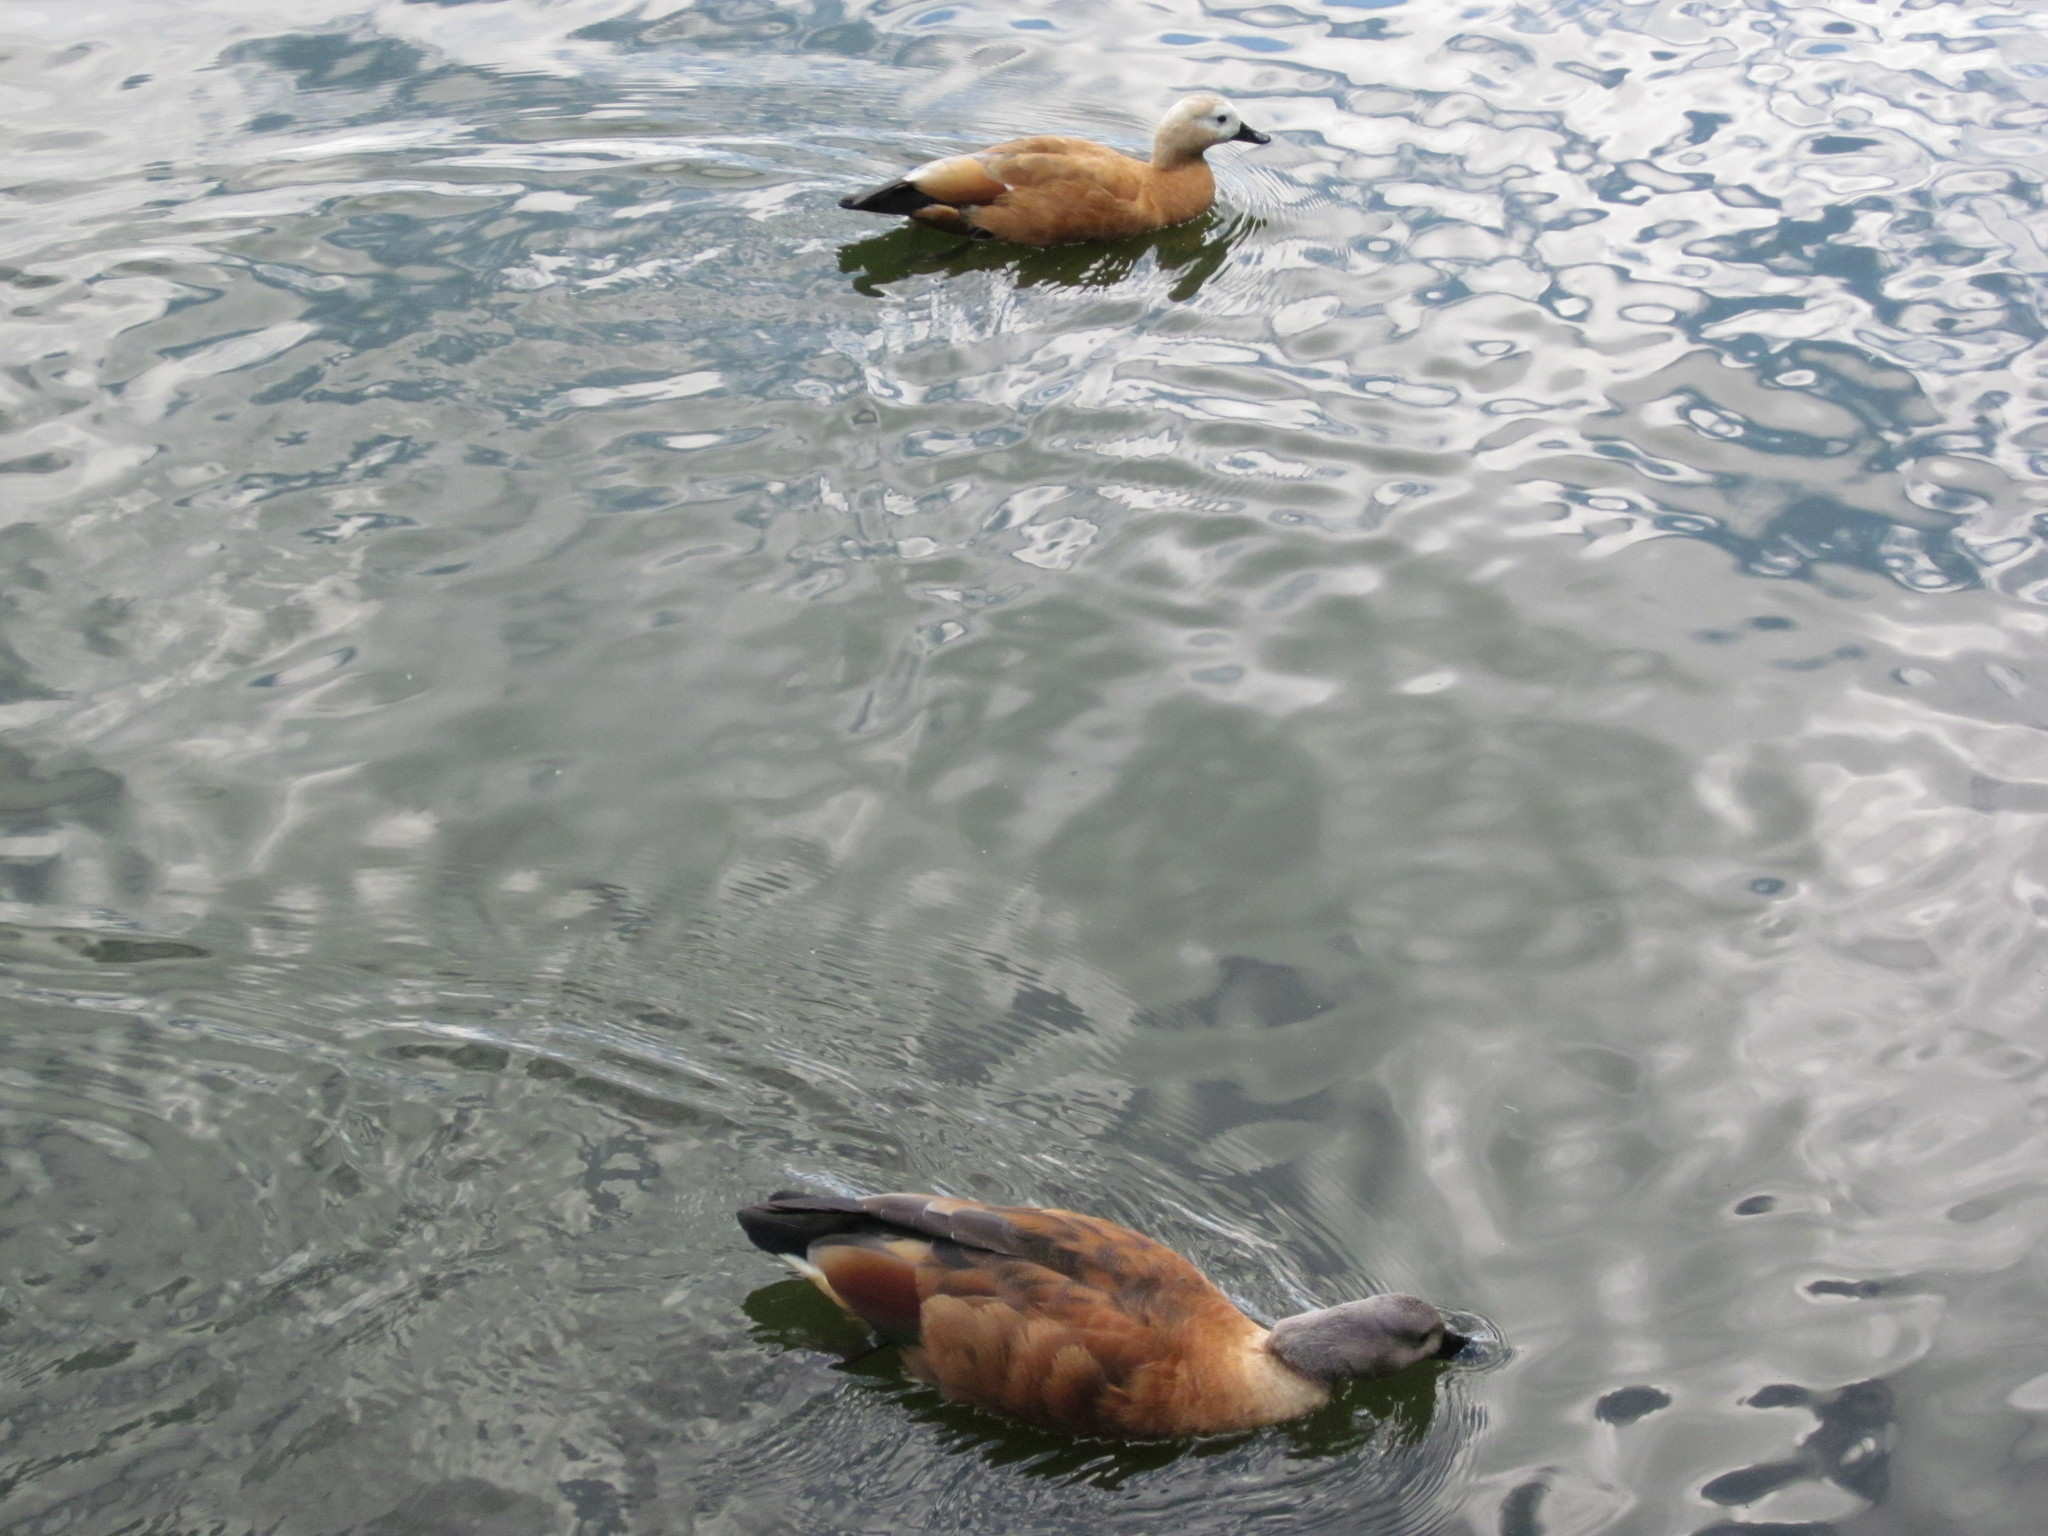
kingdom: Animalia
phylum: Chordata
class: Aves
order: Anseriformes
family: Anatidae
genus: Tadorna
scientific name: Tadorna ferruginea
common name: Ruddy shelduck
